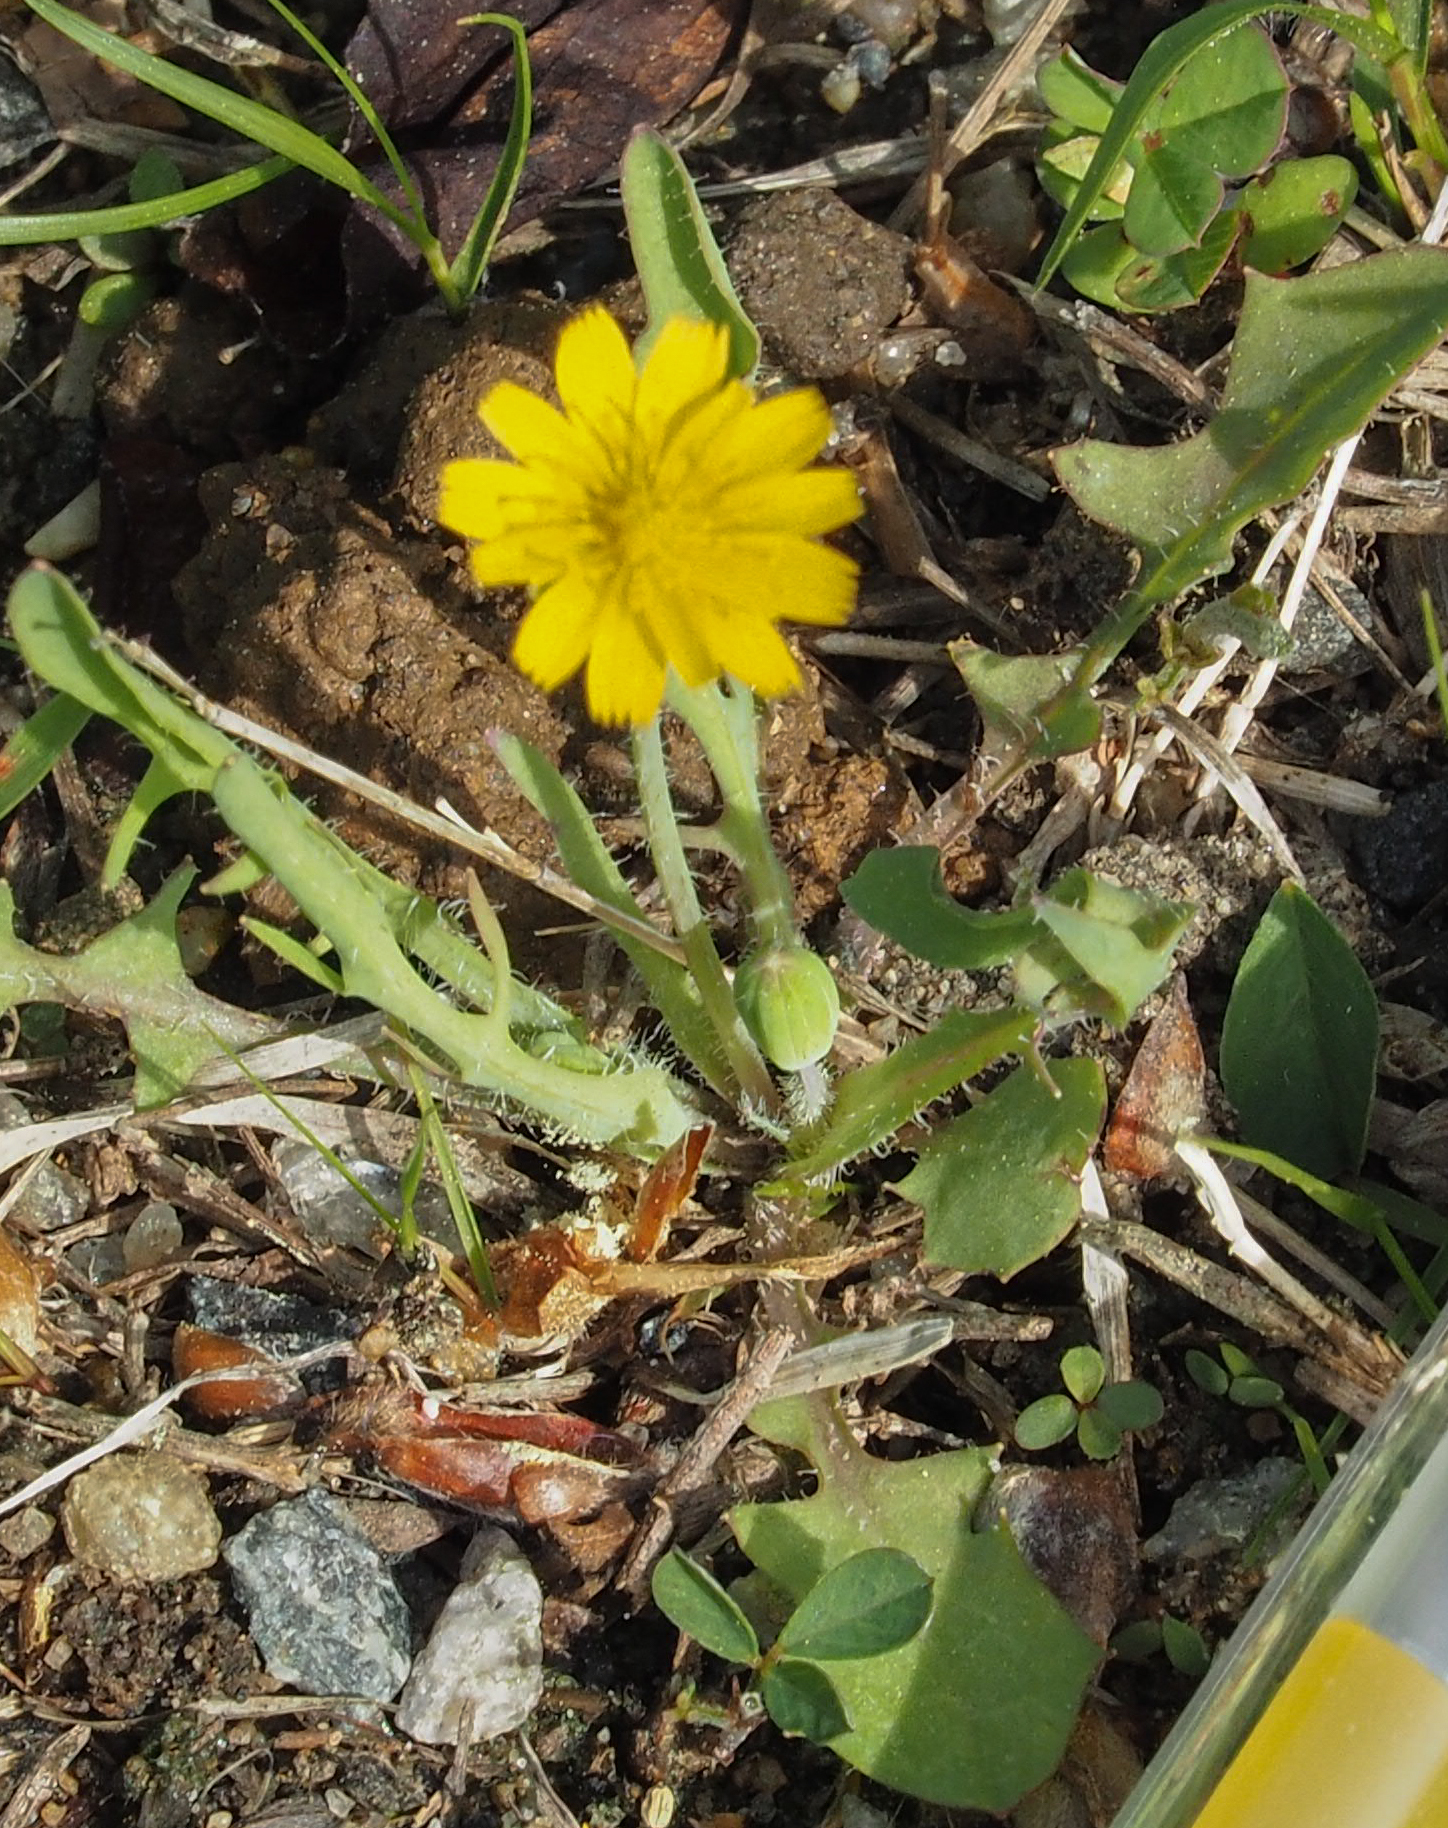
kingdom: Plantae
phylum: Tracheophyta
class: Magnoliopsida
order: Asterales
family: Asteraceae
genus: Krigia
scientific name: Krigia virginica
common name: Virginia dwarf-dandelion
